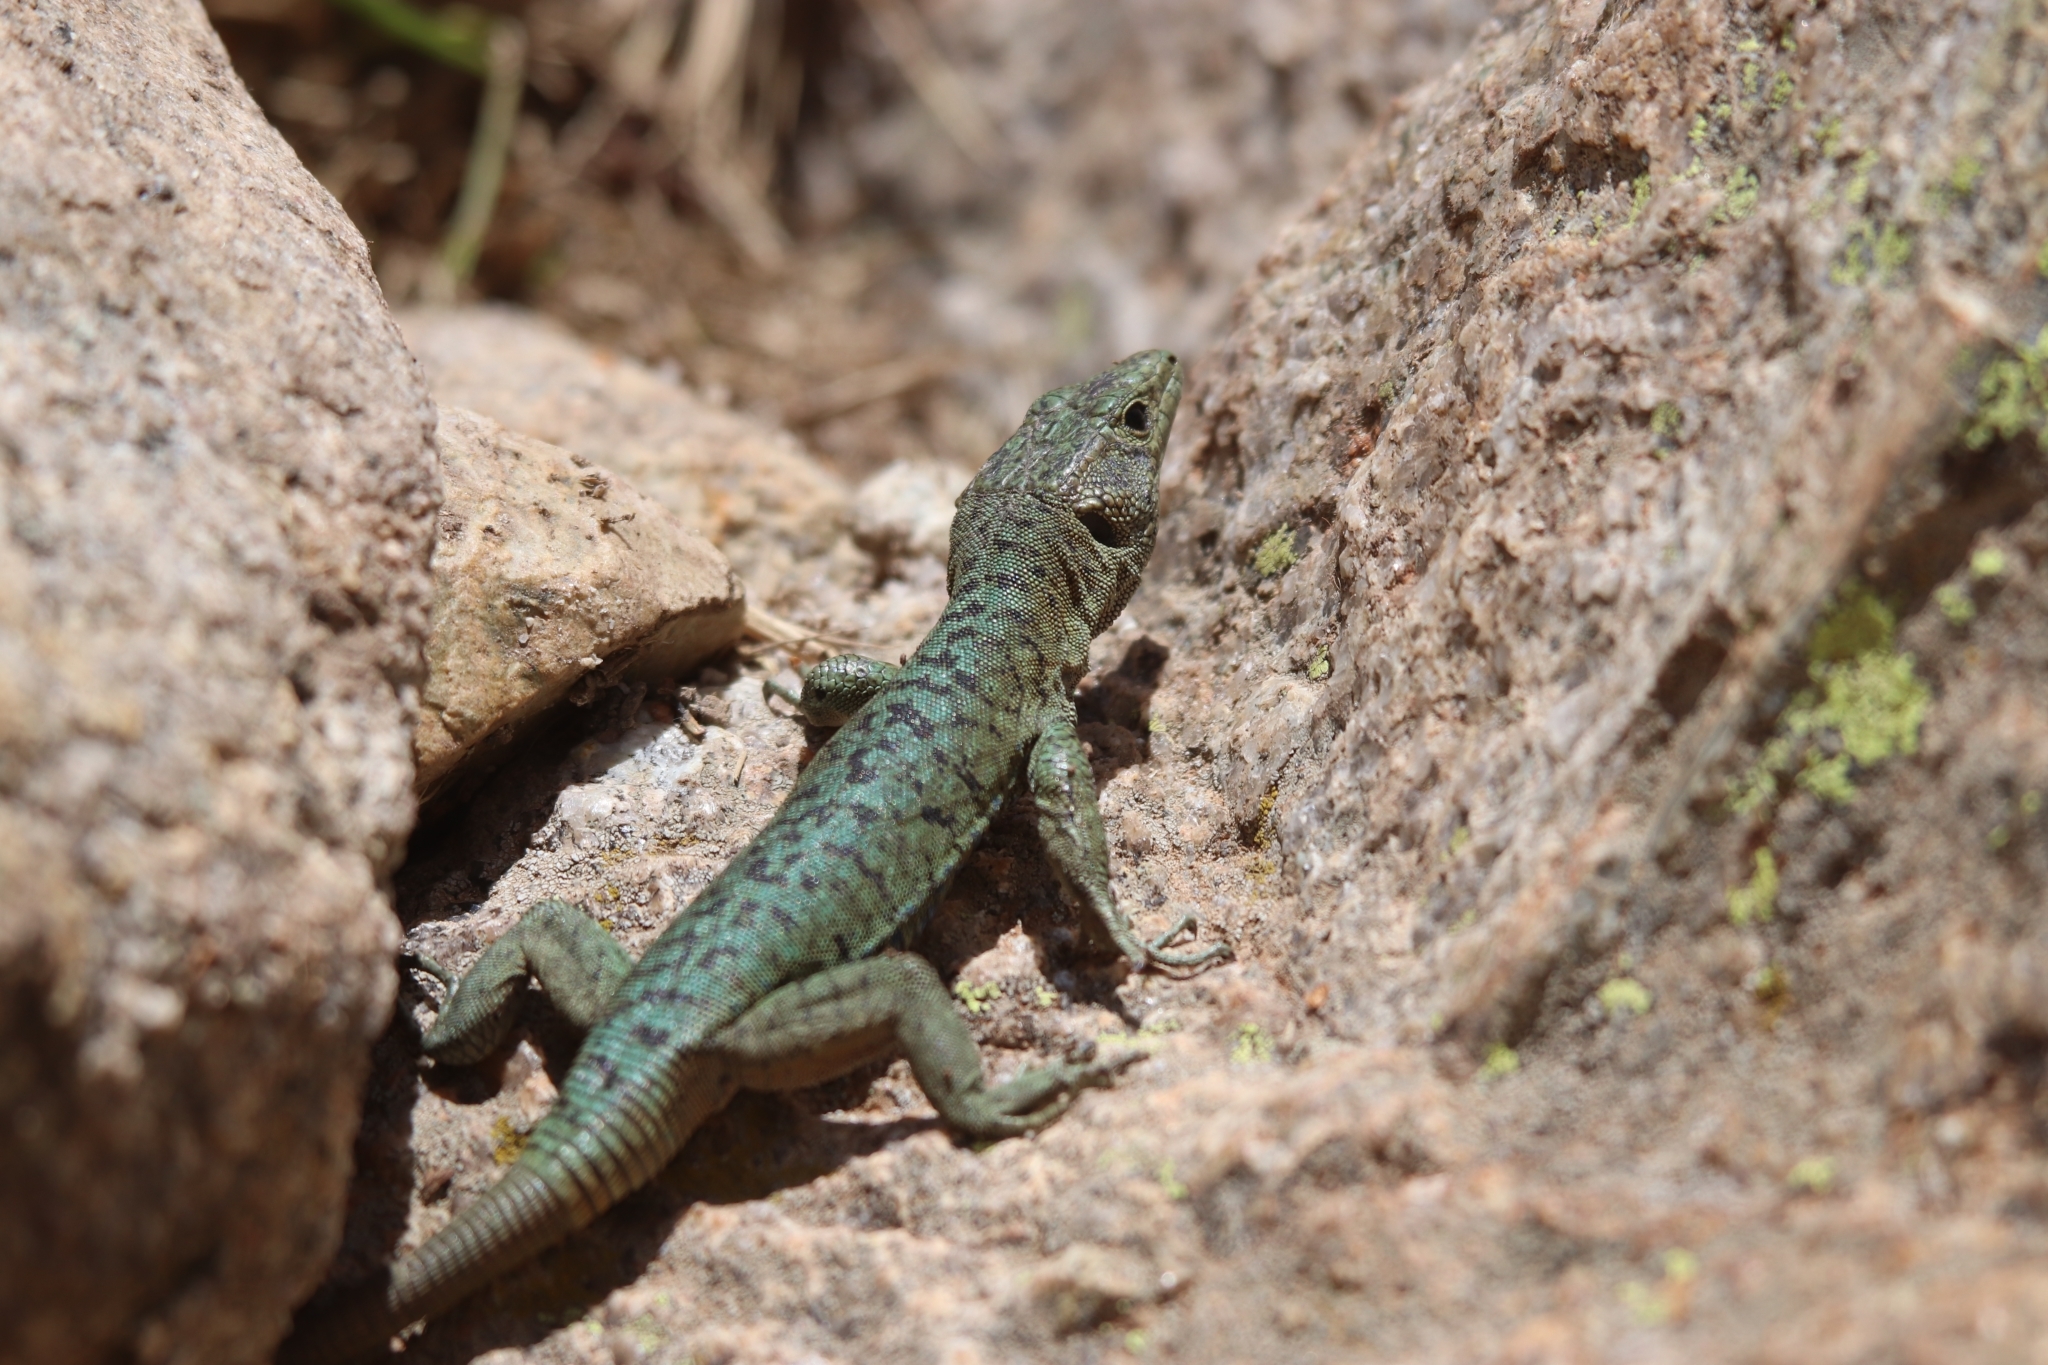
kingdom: Animalia
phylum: Chordata
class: Squamata
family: Lacertidae
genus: Archaeolacerta
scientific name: Archaeolacerta bedriagae
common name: Bedriaga's rock lizard
